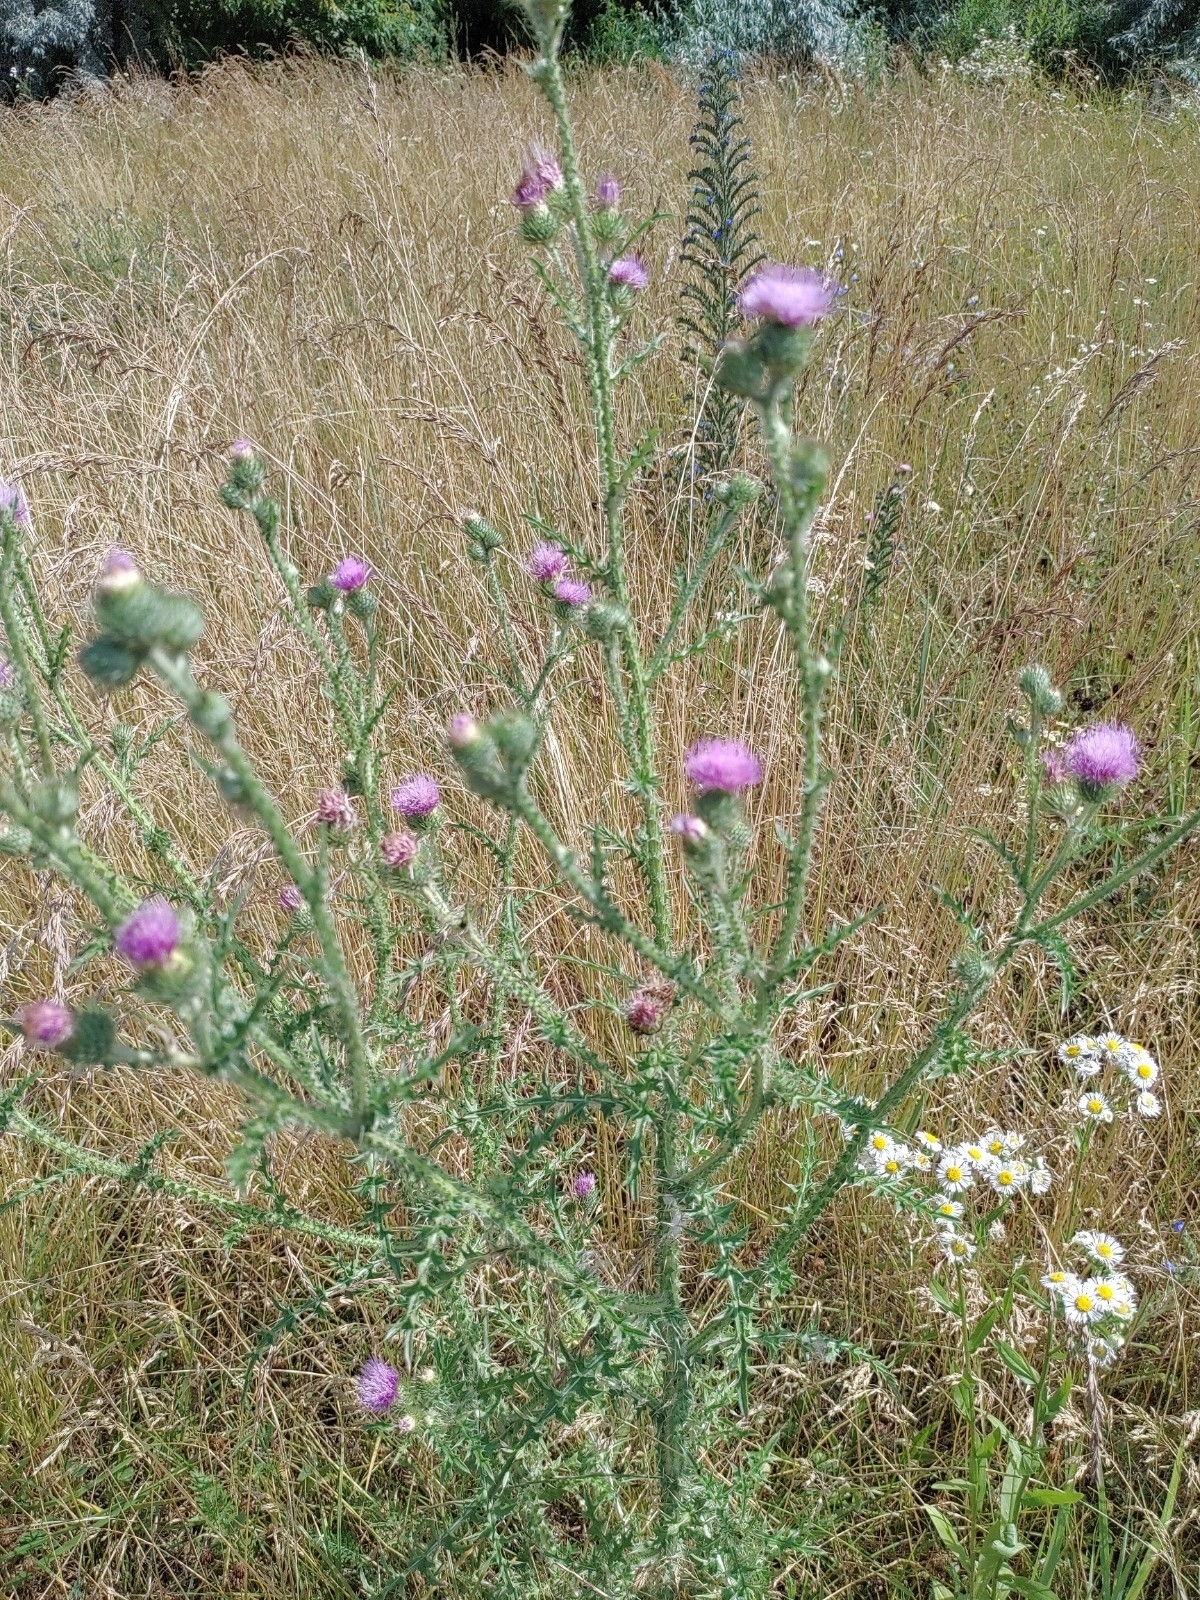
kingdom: Plantae
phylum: Tracheophyta
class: Magnoliopsida
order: Asterales
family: Asteraceae
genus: Carduus
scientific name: Carduus acanthoides
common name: Plumeless thistle
